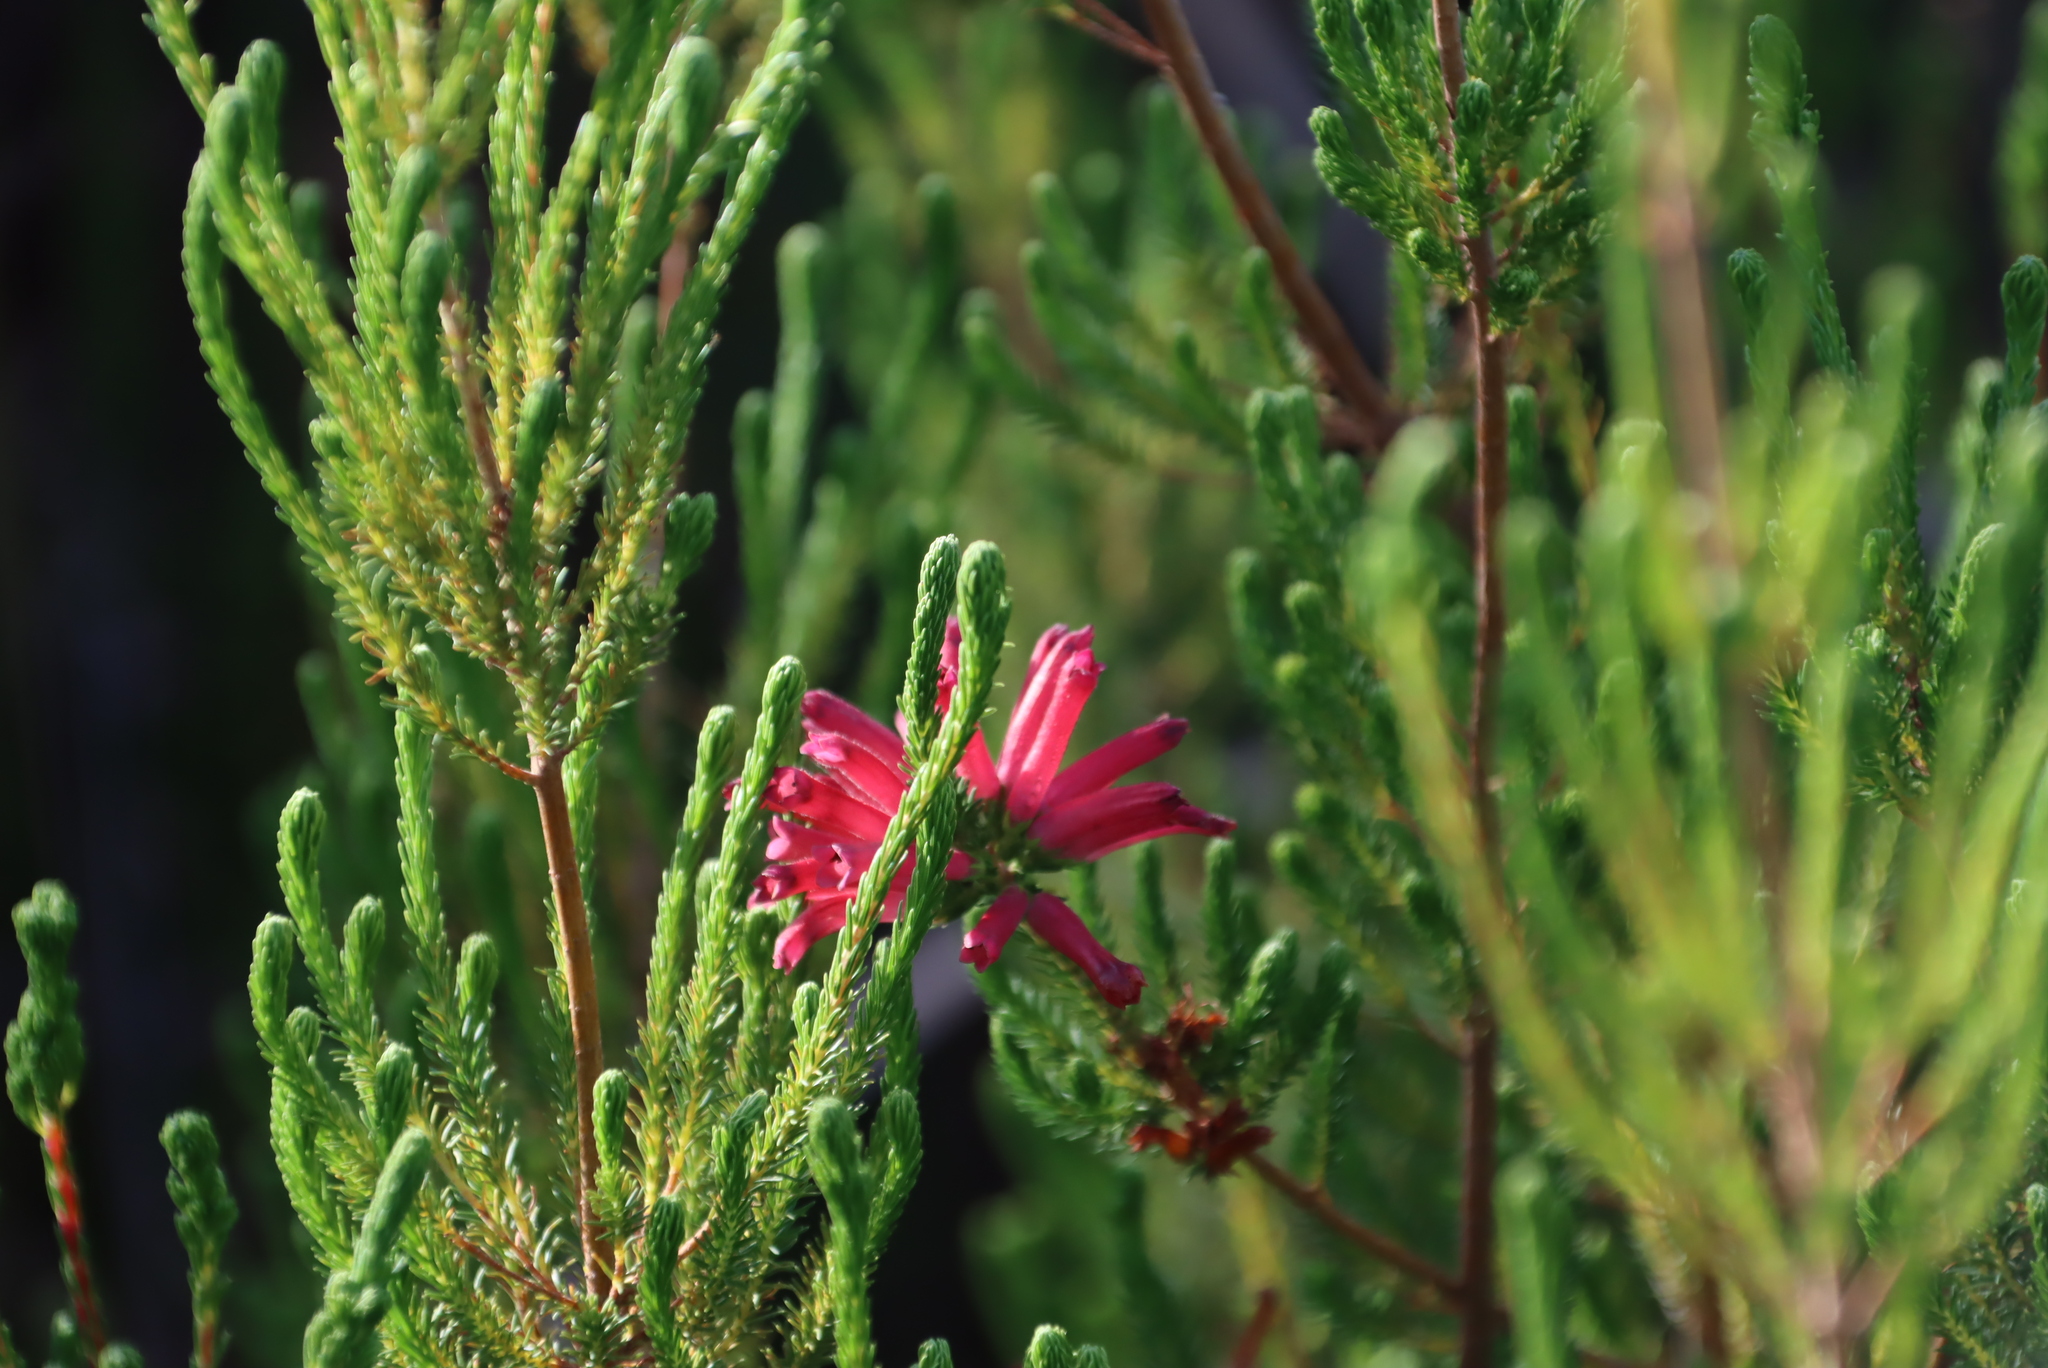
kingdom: Plantae
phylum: Tracheophyta
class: Magnoliopsida
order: Ericales
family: Ericaceae
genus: Erica
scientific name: Erica verticillata
